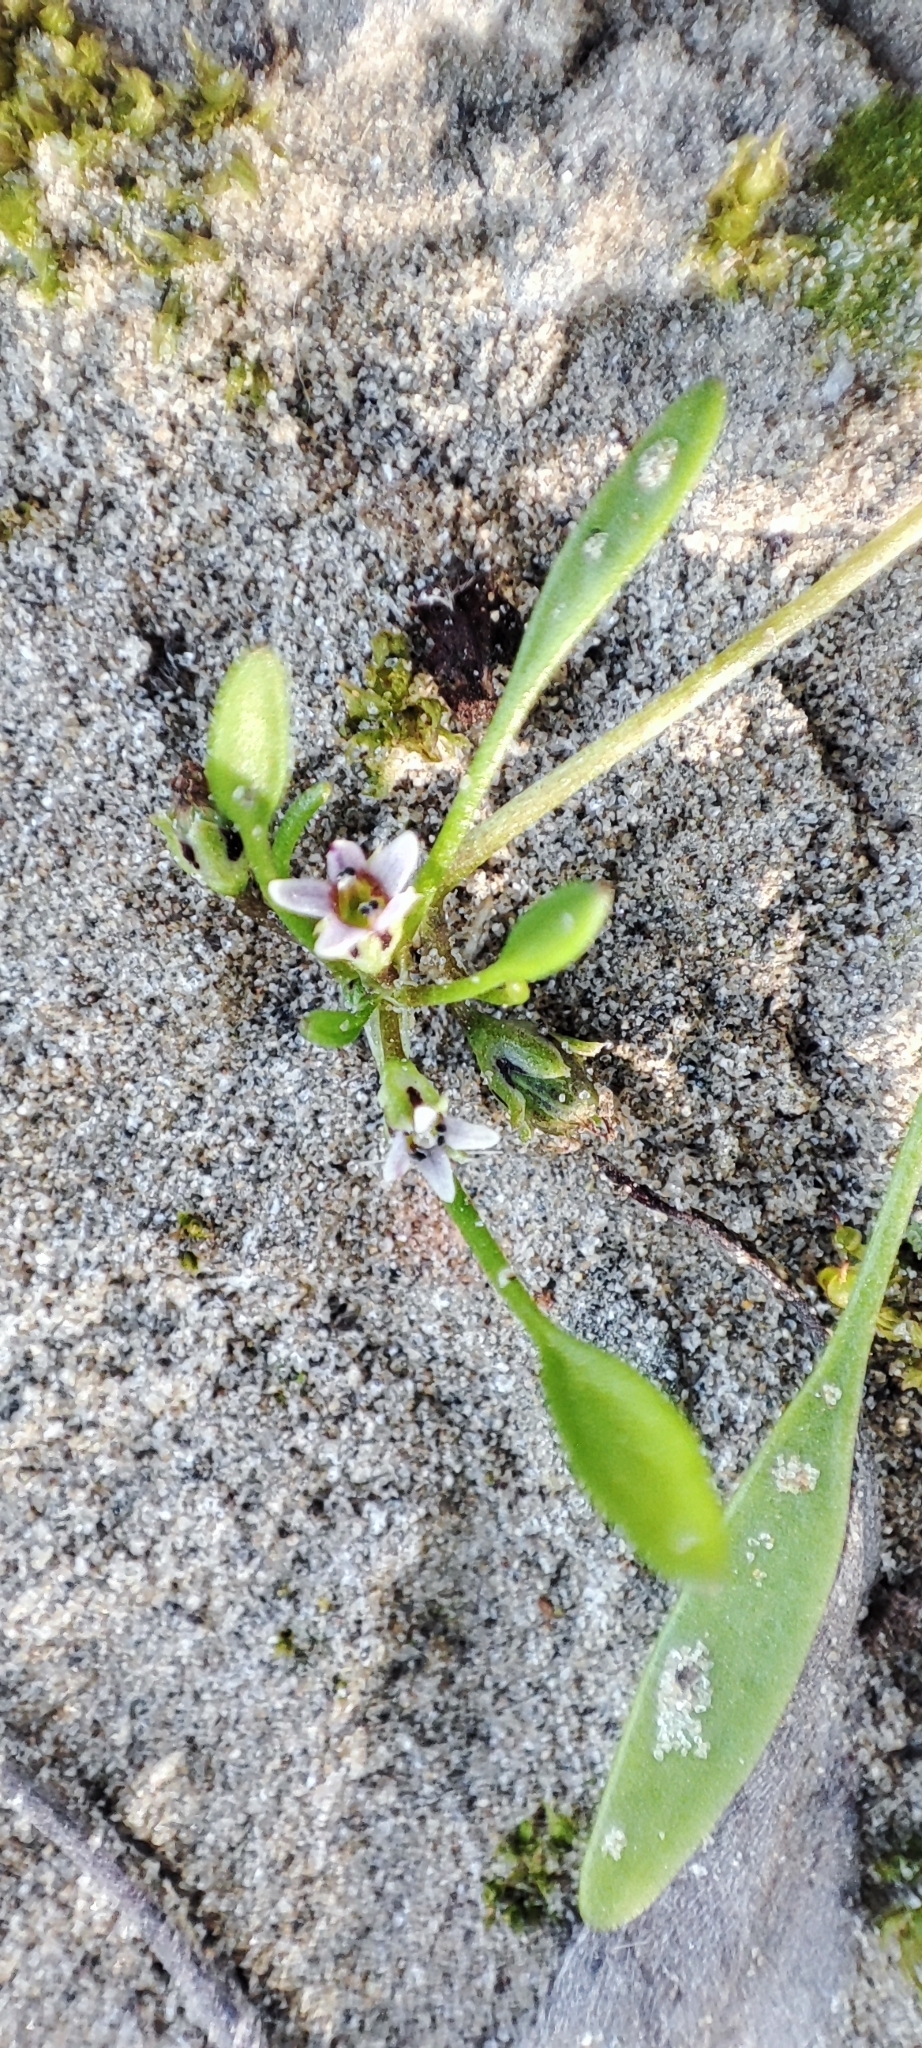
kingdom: Plantae
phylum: Tracheophyta
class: Magnoliopsida
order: Lamiales
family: Scrophulariaceae
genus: Limosella
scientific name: Limosella aquatica
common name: Mudwort
